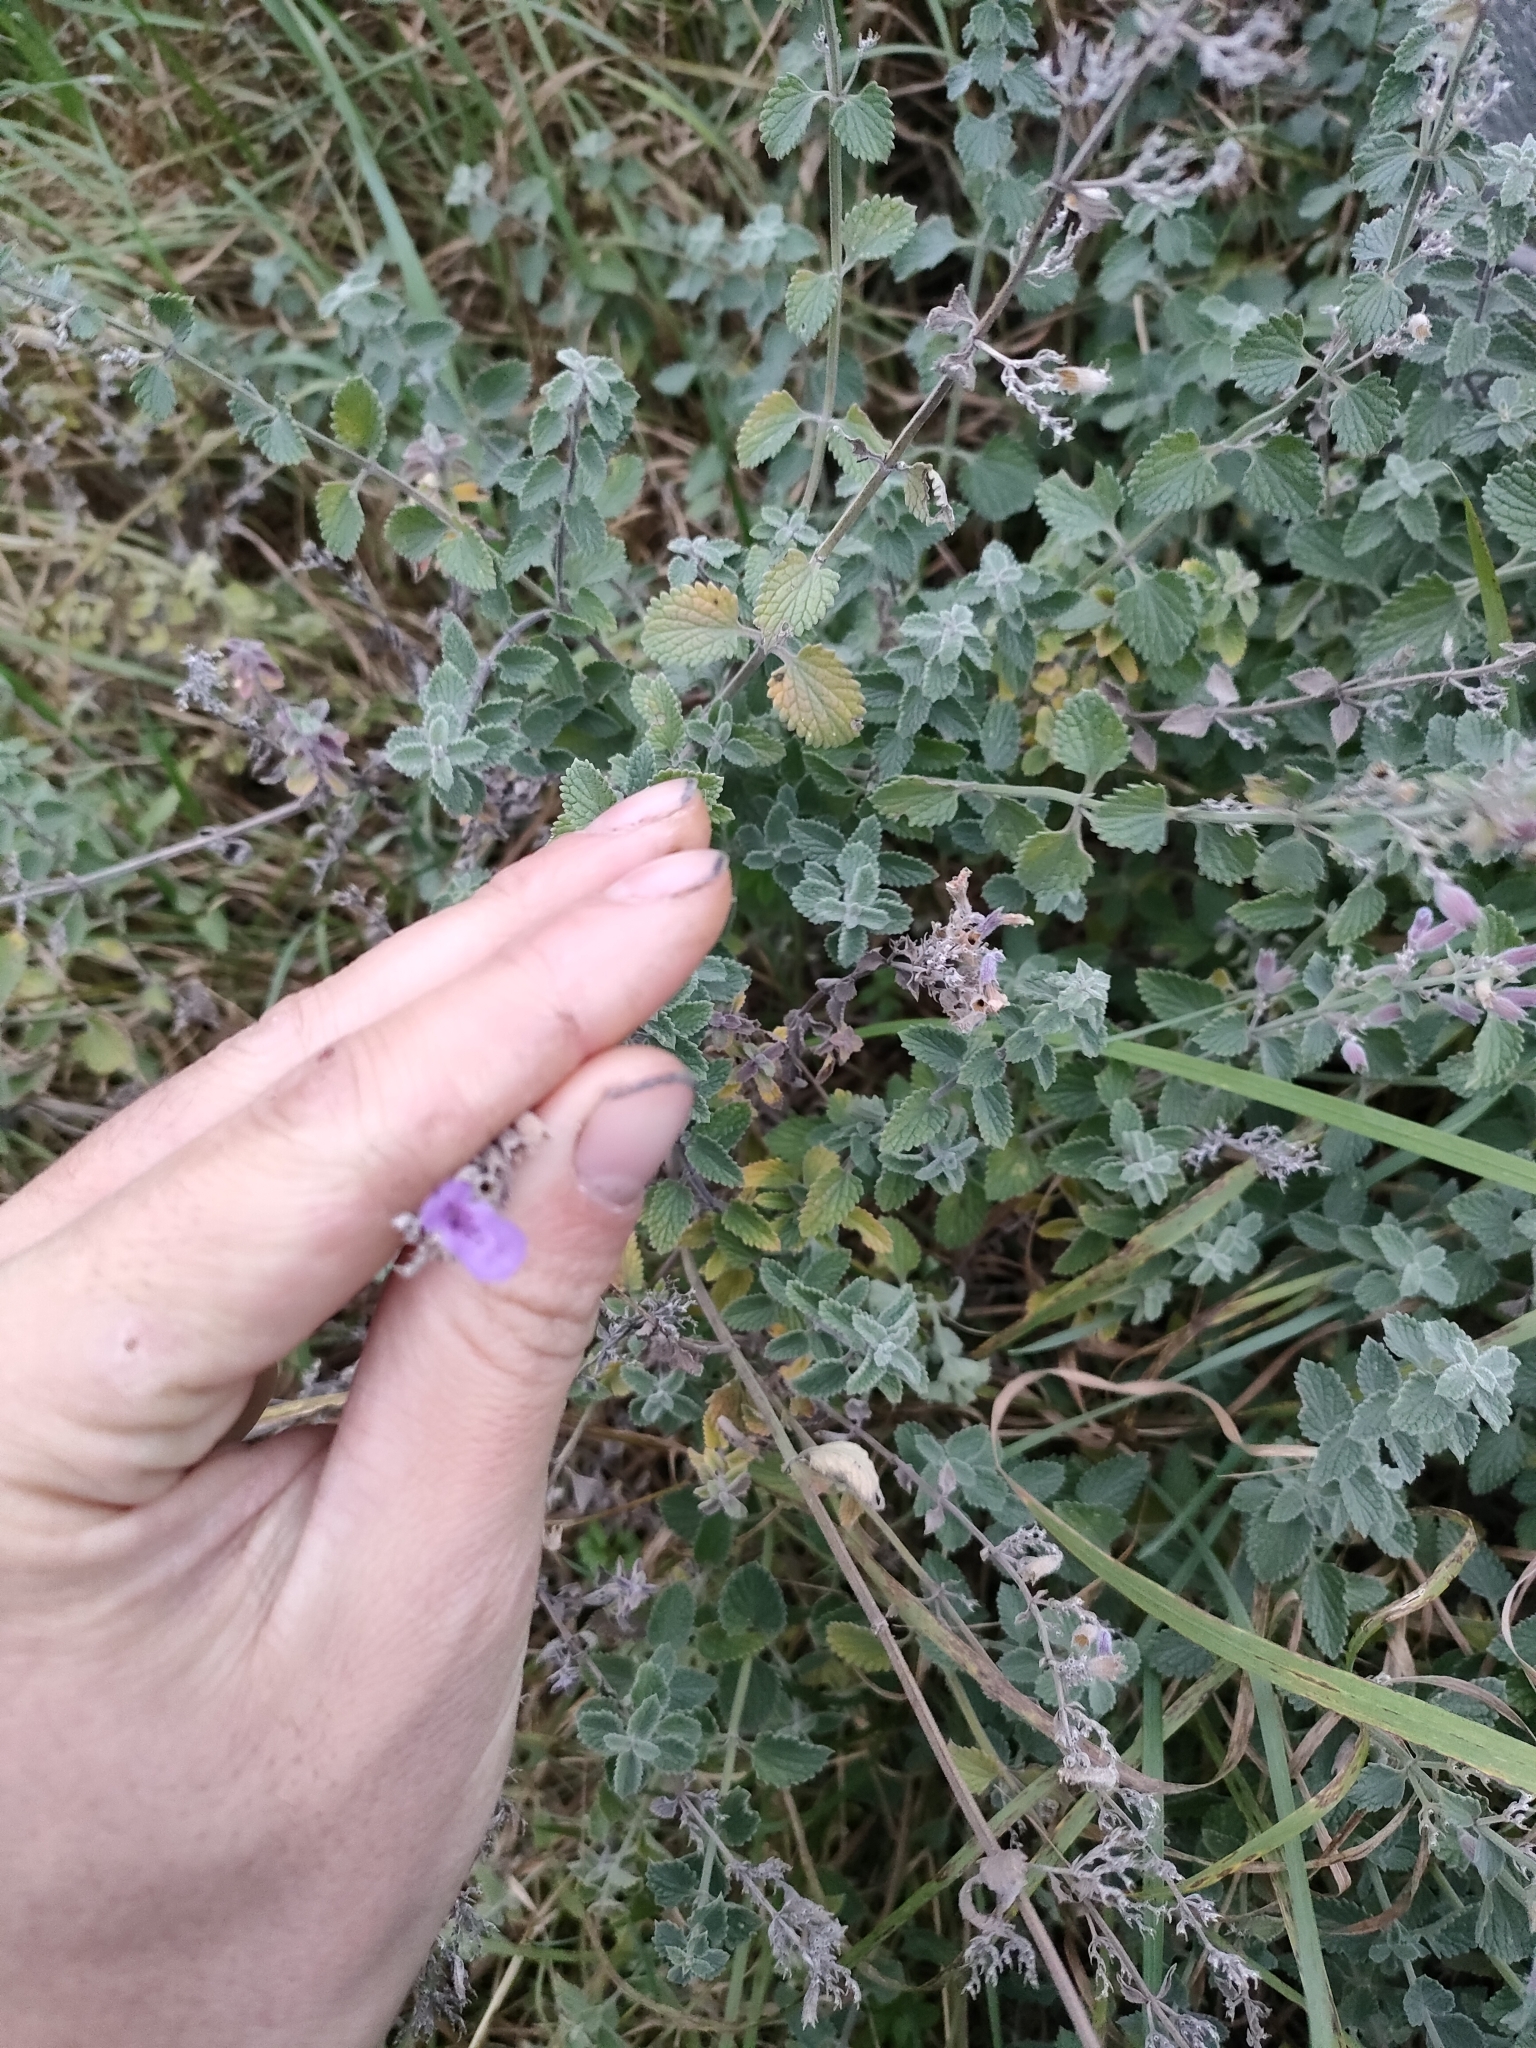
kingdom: Plantae
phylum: Tracheophyta
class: Magnoliopsida
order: Lamiales
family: Lamiaceae
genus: Nepeta
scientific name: Nepeta faassenii
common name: Catmint
